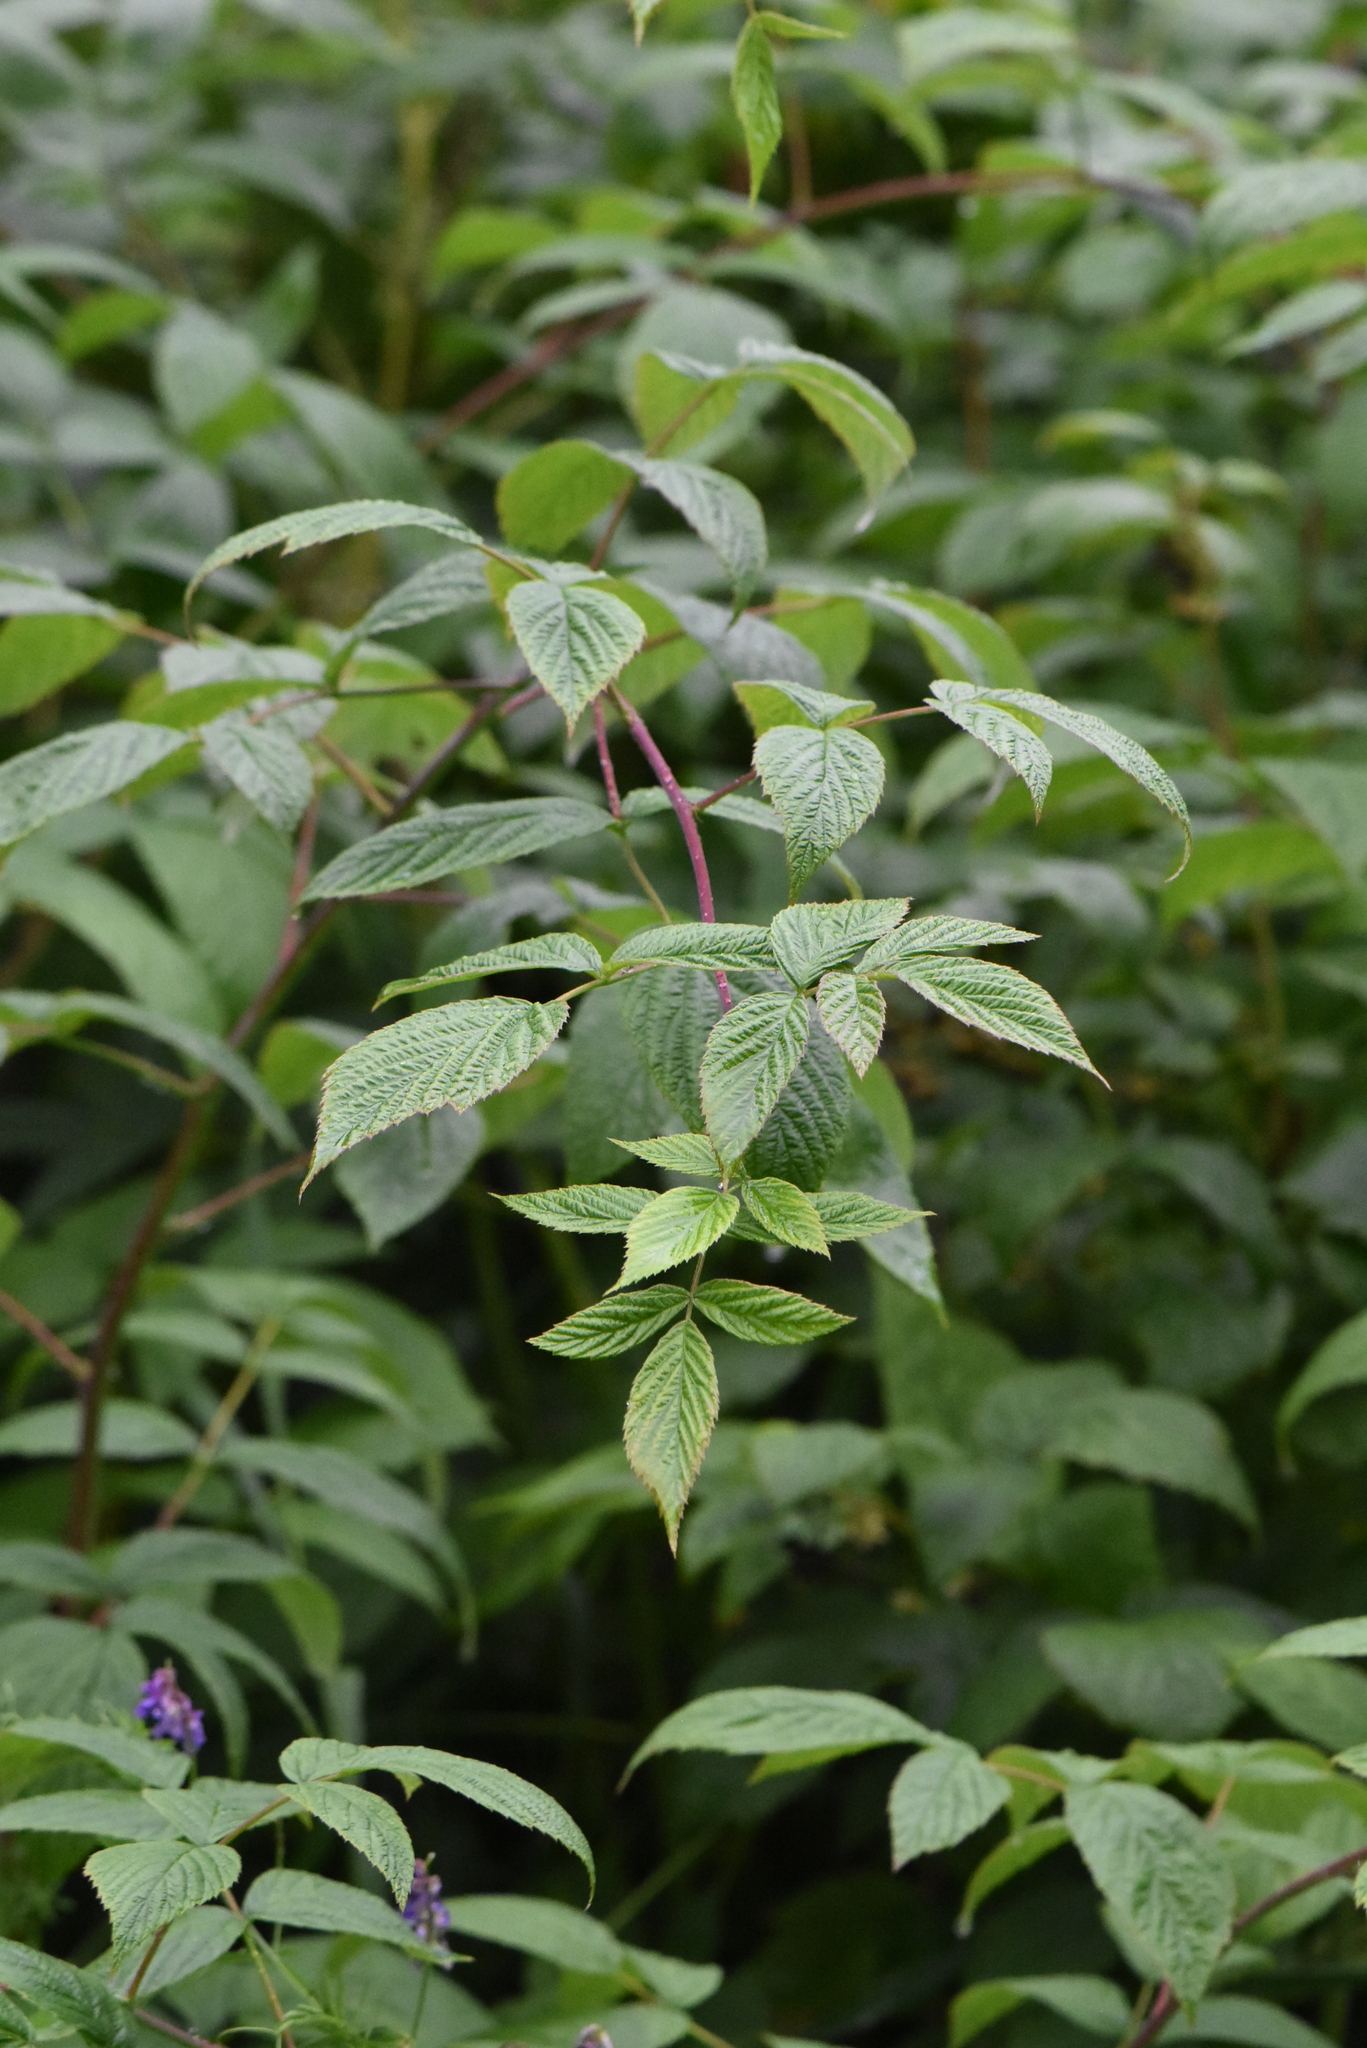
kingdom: Plantae
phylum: Tracheophyta
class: Magnoliopsida
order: Rosales
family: Rosaceae
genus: Rubus
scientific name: Rubus idaeus
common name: Raspberry
